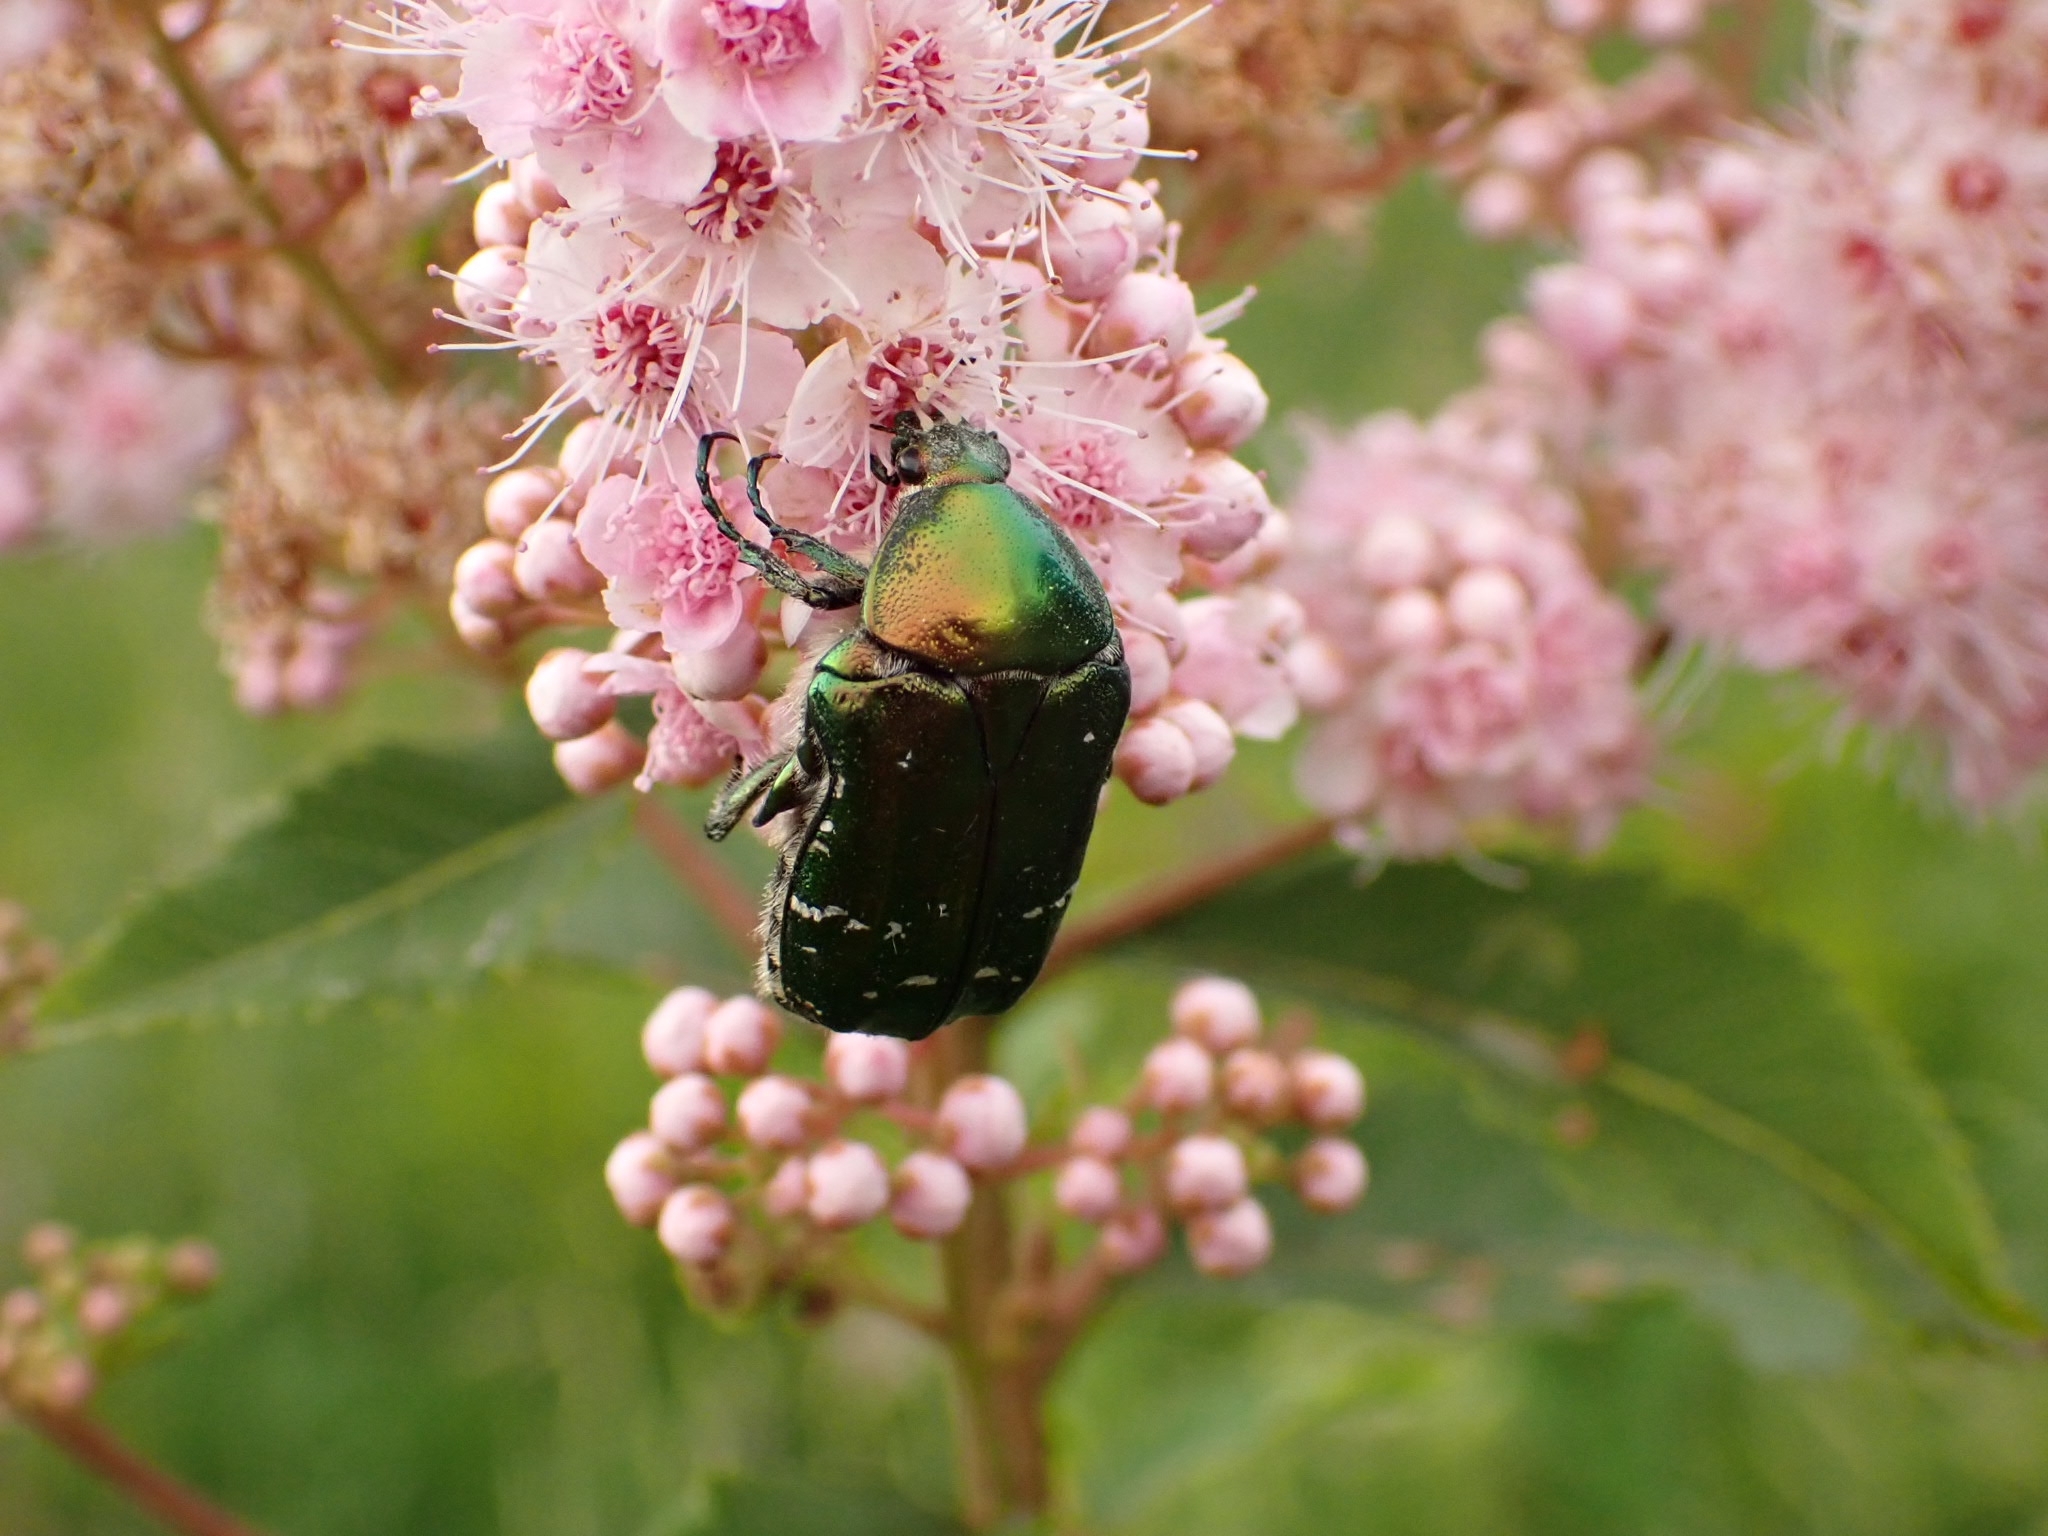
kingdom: Animalia
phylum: Arthropoda
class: Insecta
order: Coleoptera
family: Scarabaeidae
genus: Cetonia
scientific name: Cetonia aurata
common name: Rose chafer
